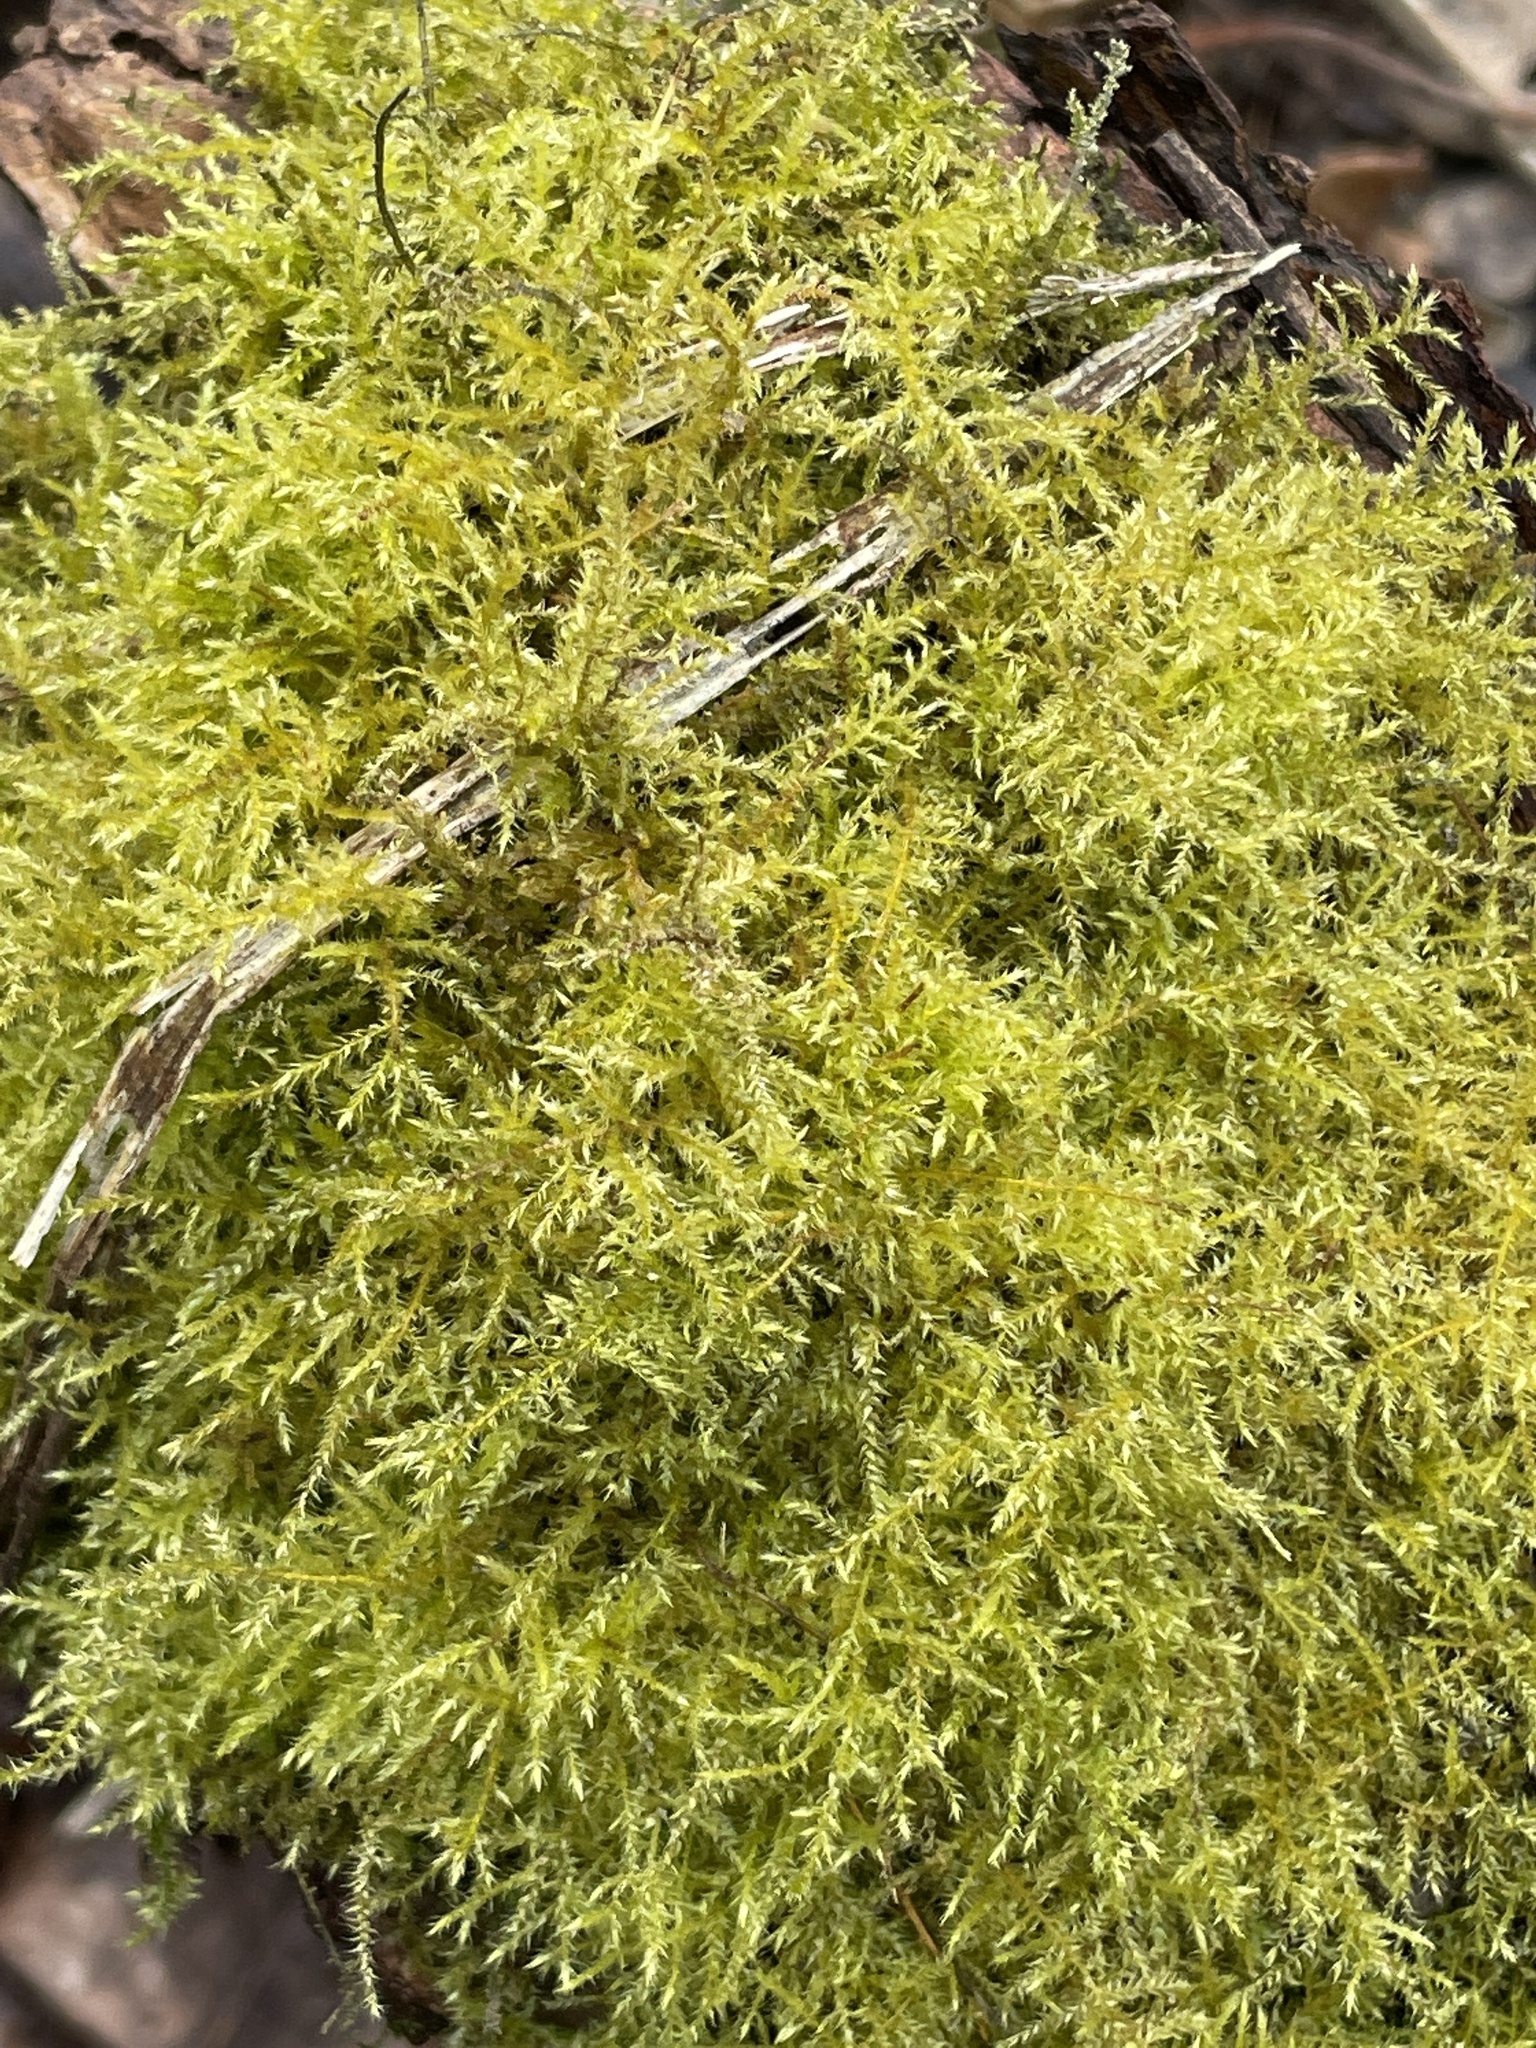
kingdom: Plantae
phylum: Bryophyta
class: Bryopsida
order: Hypnales
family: Brachytheciaceae
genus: Kindbergia
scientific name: Kindbergia praelonga
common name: Slender beaked moss
